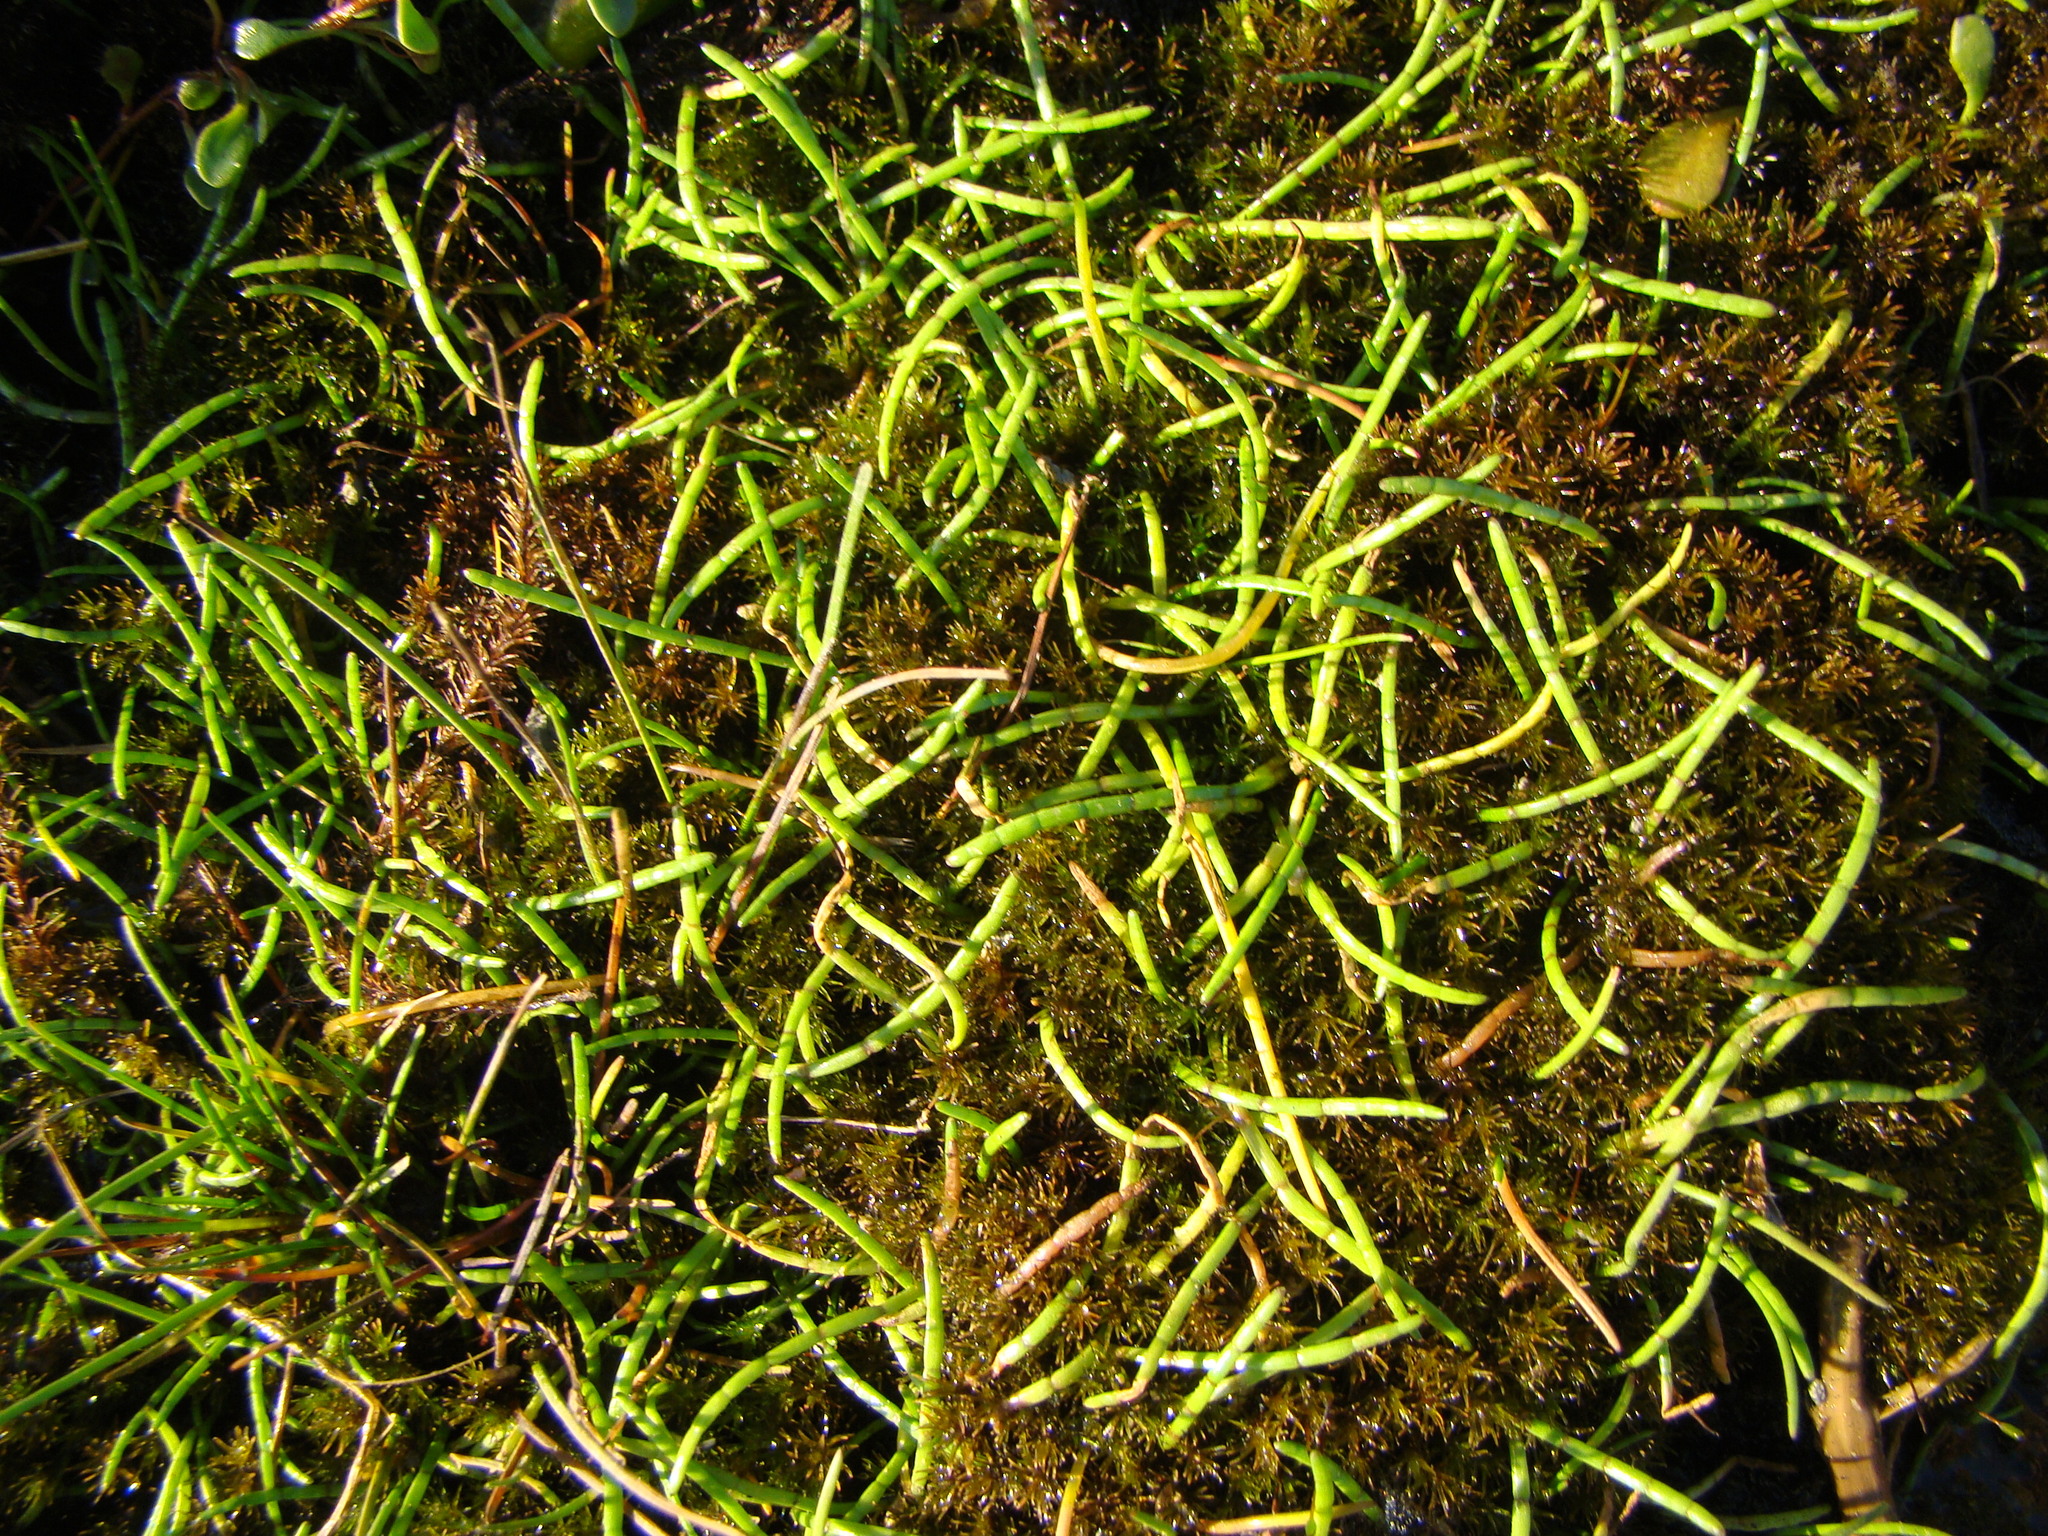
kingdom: Plantae
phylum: Tracheophyta
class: Magnoliopsida
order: Apiales
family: Apiaceae
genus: Lilaeopsis
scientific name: Lilaeopsis novae-zelandiae
